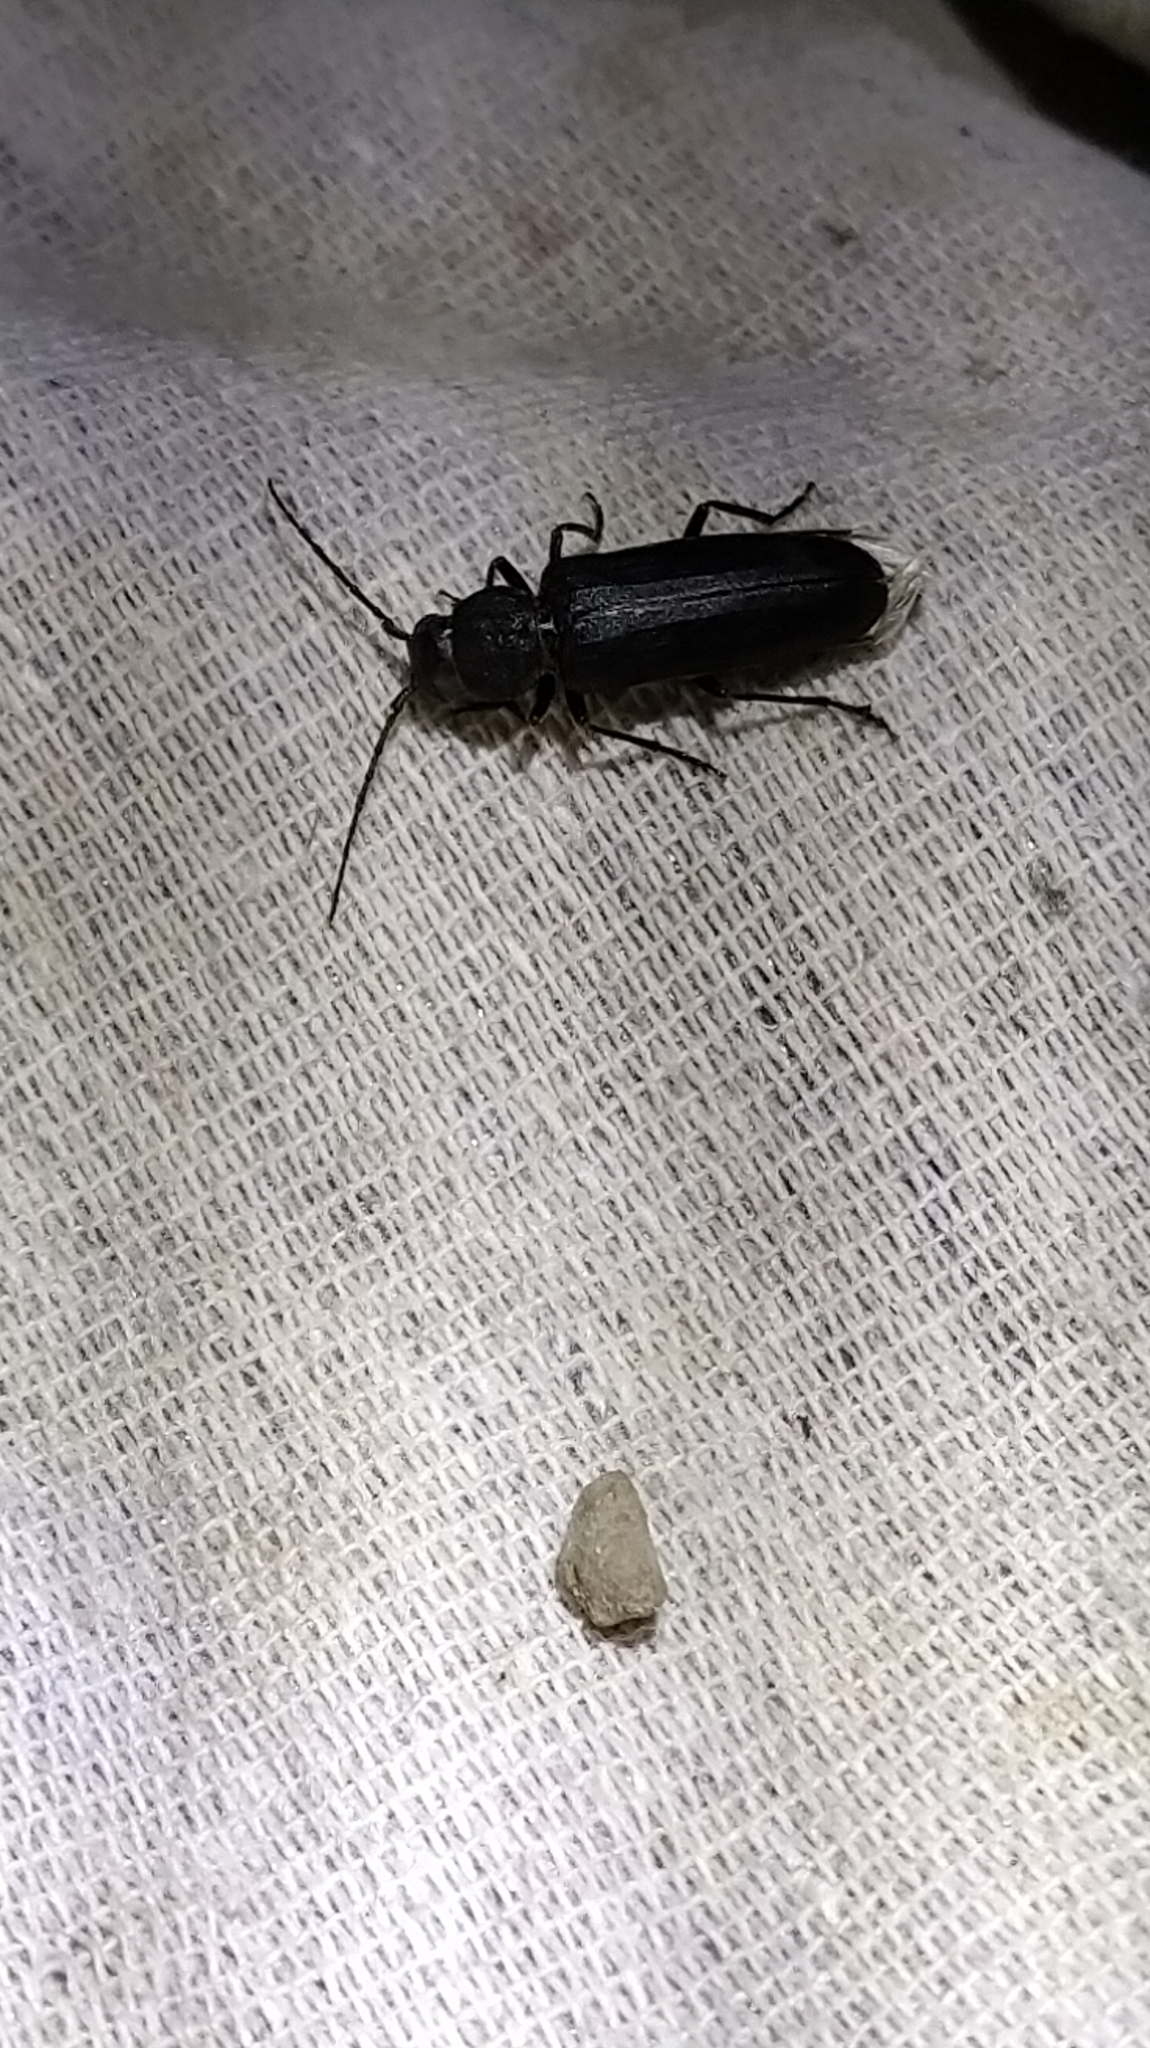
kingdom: Animalia
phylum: Arthropoda
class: Insecta
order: Coleoptera
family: Cerambycidae
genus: Arhopalus
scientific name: Arhopalus ferus
